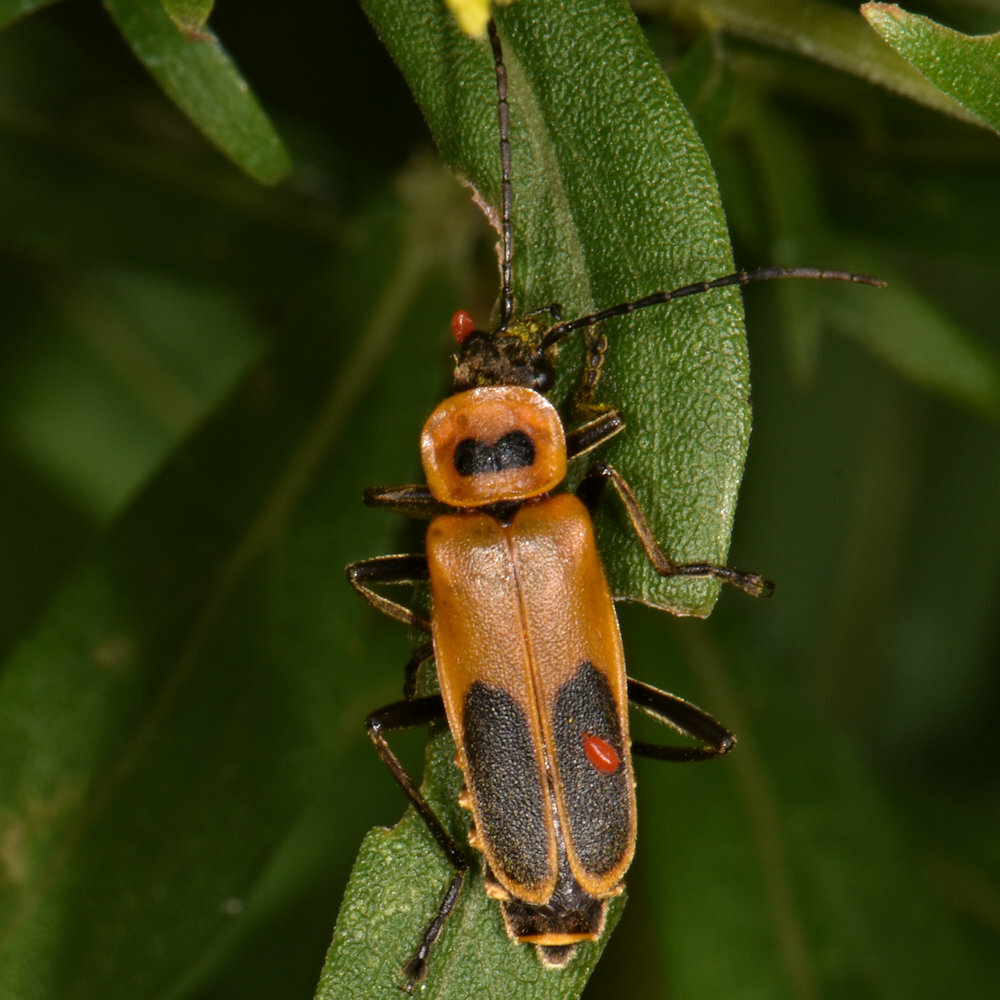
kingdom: Animalia
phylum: Arthropoda
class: Insecta
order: Coleoptera
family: Cantharidae
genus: Chauliognathus
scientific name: Chauliognathus pensylvanicus
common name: Goldenrod soldier beetle
